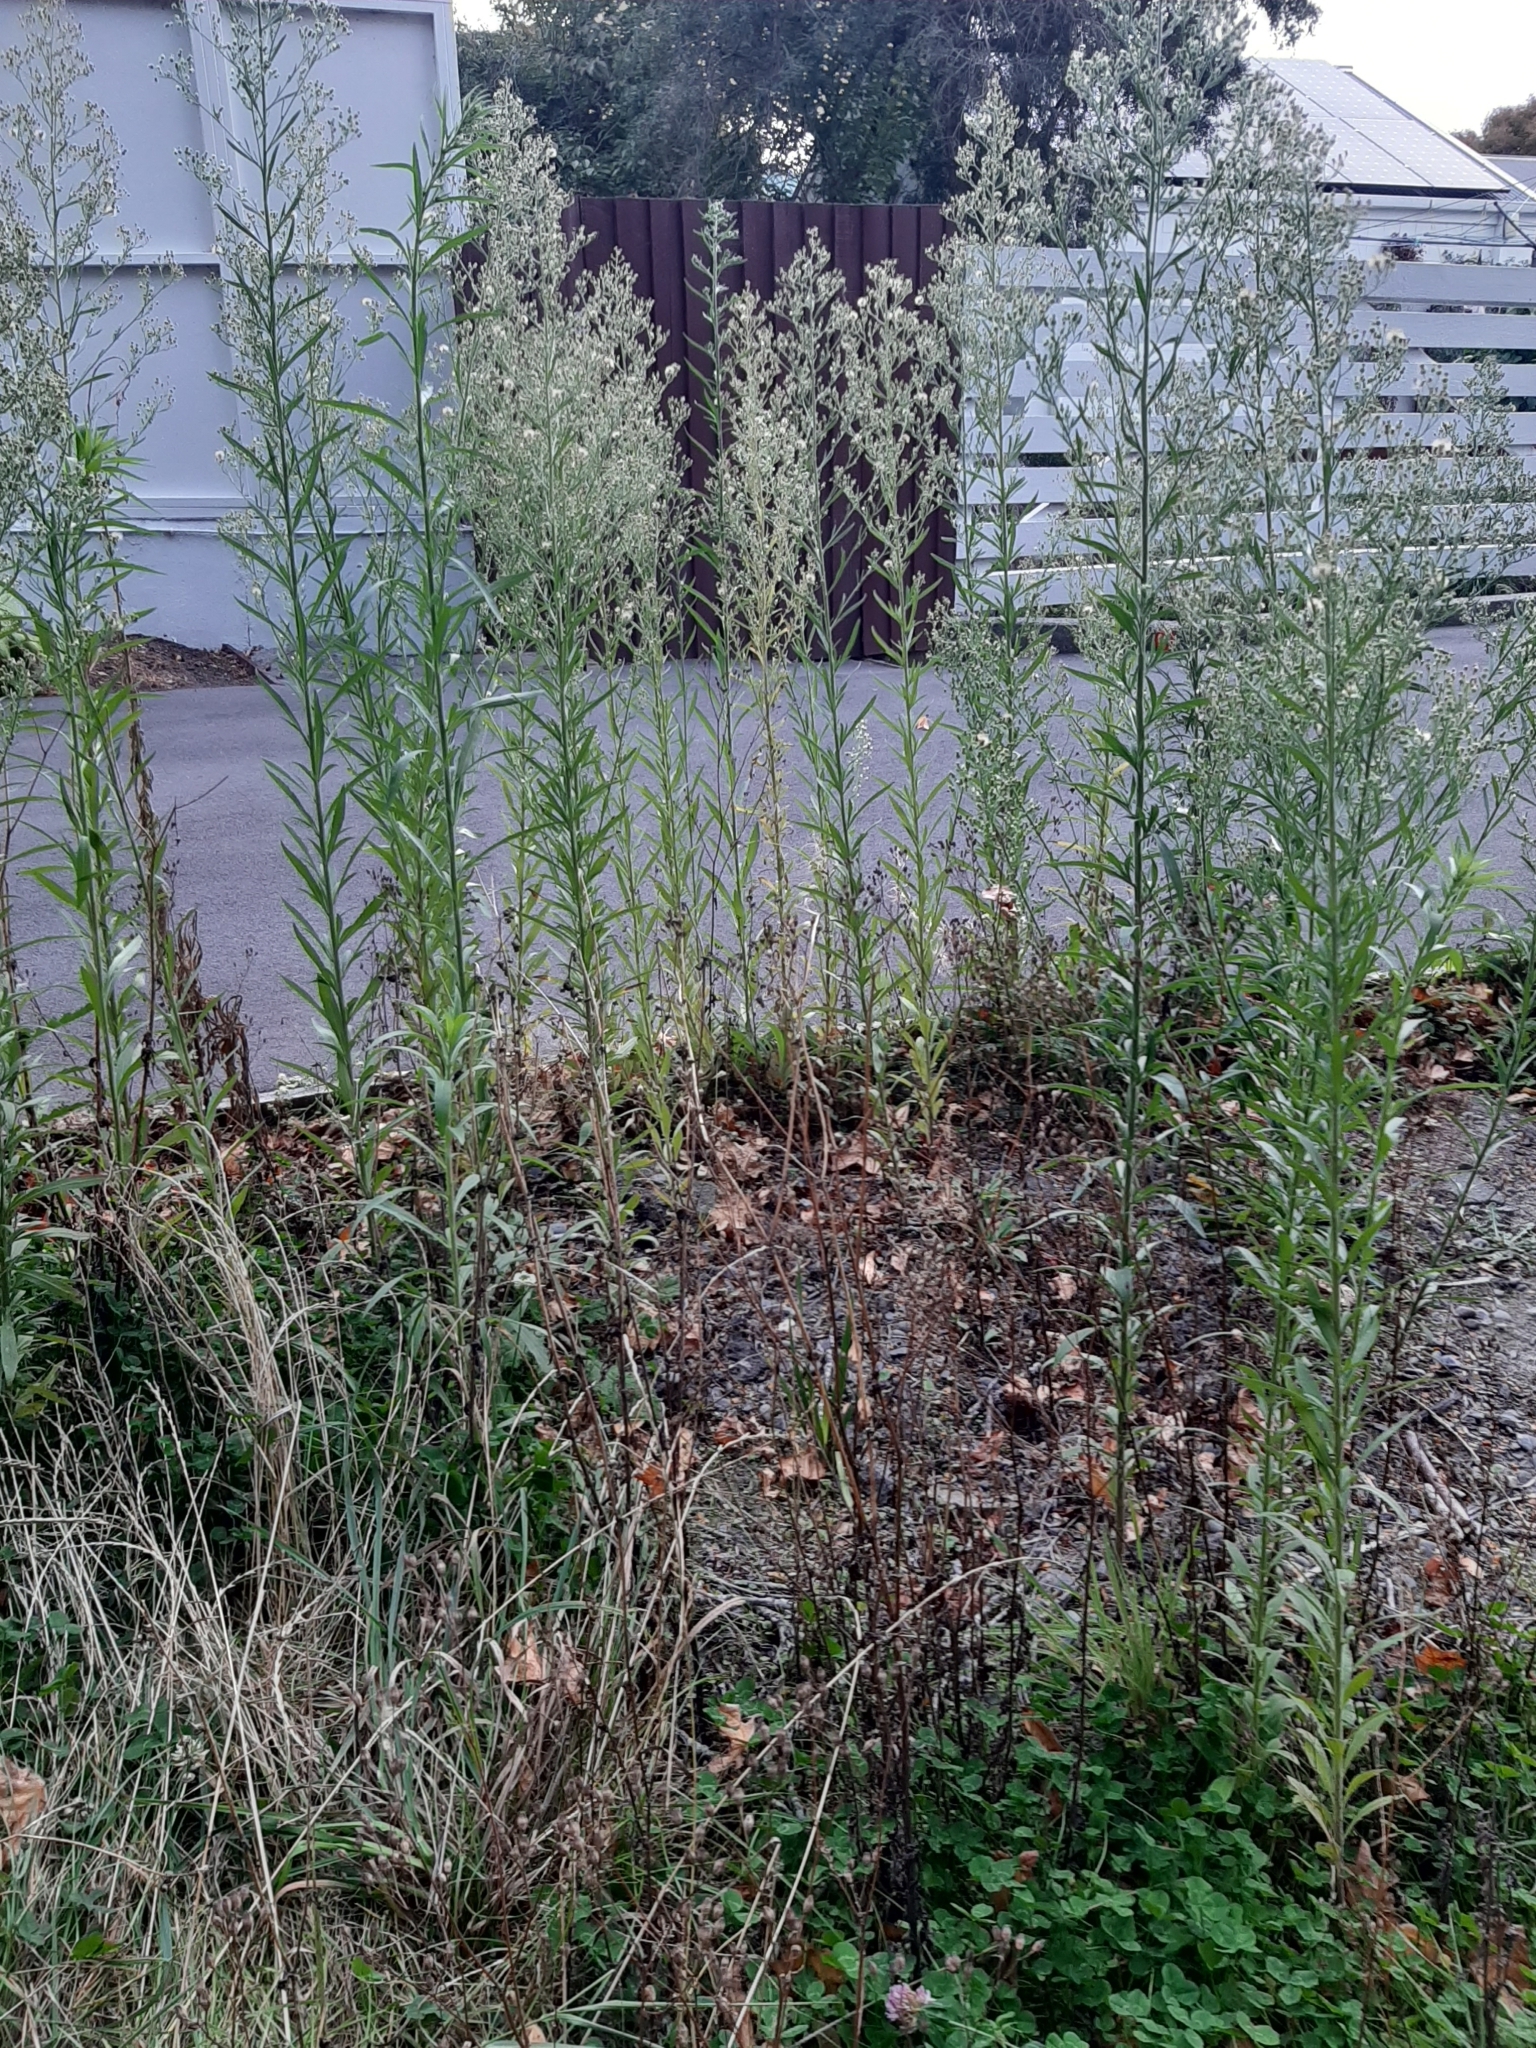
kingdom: Plantae
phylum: Tracheophyta
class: Magnoliopsida
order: Asterales
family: Asteraceae
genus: Erigeron
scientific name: Erigeron sumatrensis
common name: Daisy
